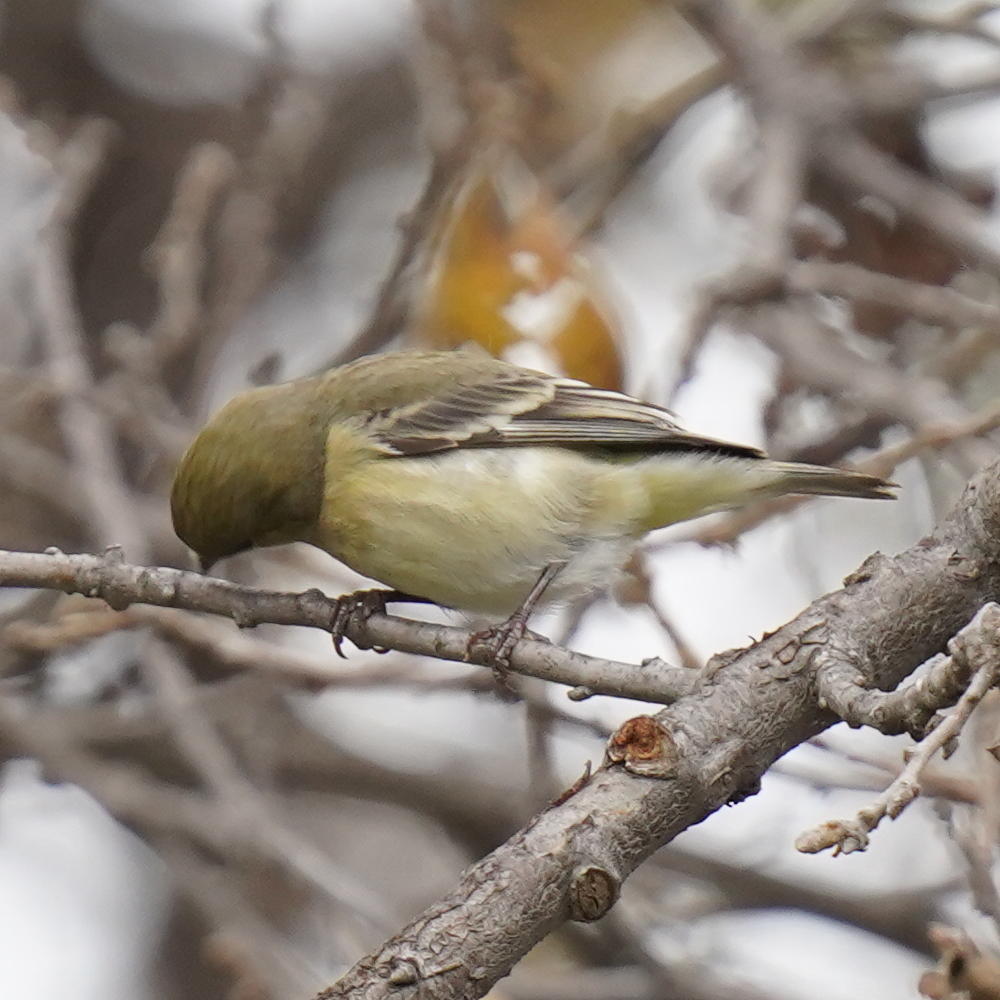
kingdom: Animalia
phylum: Chordata
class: Aves
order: Passeriformes
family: Fringillidae
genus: Spinus
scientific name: Spinus psaltria
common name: Lesser goldfinch
